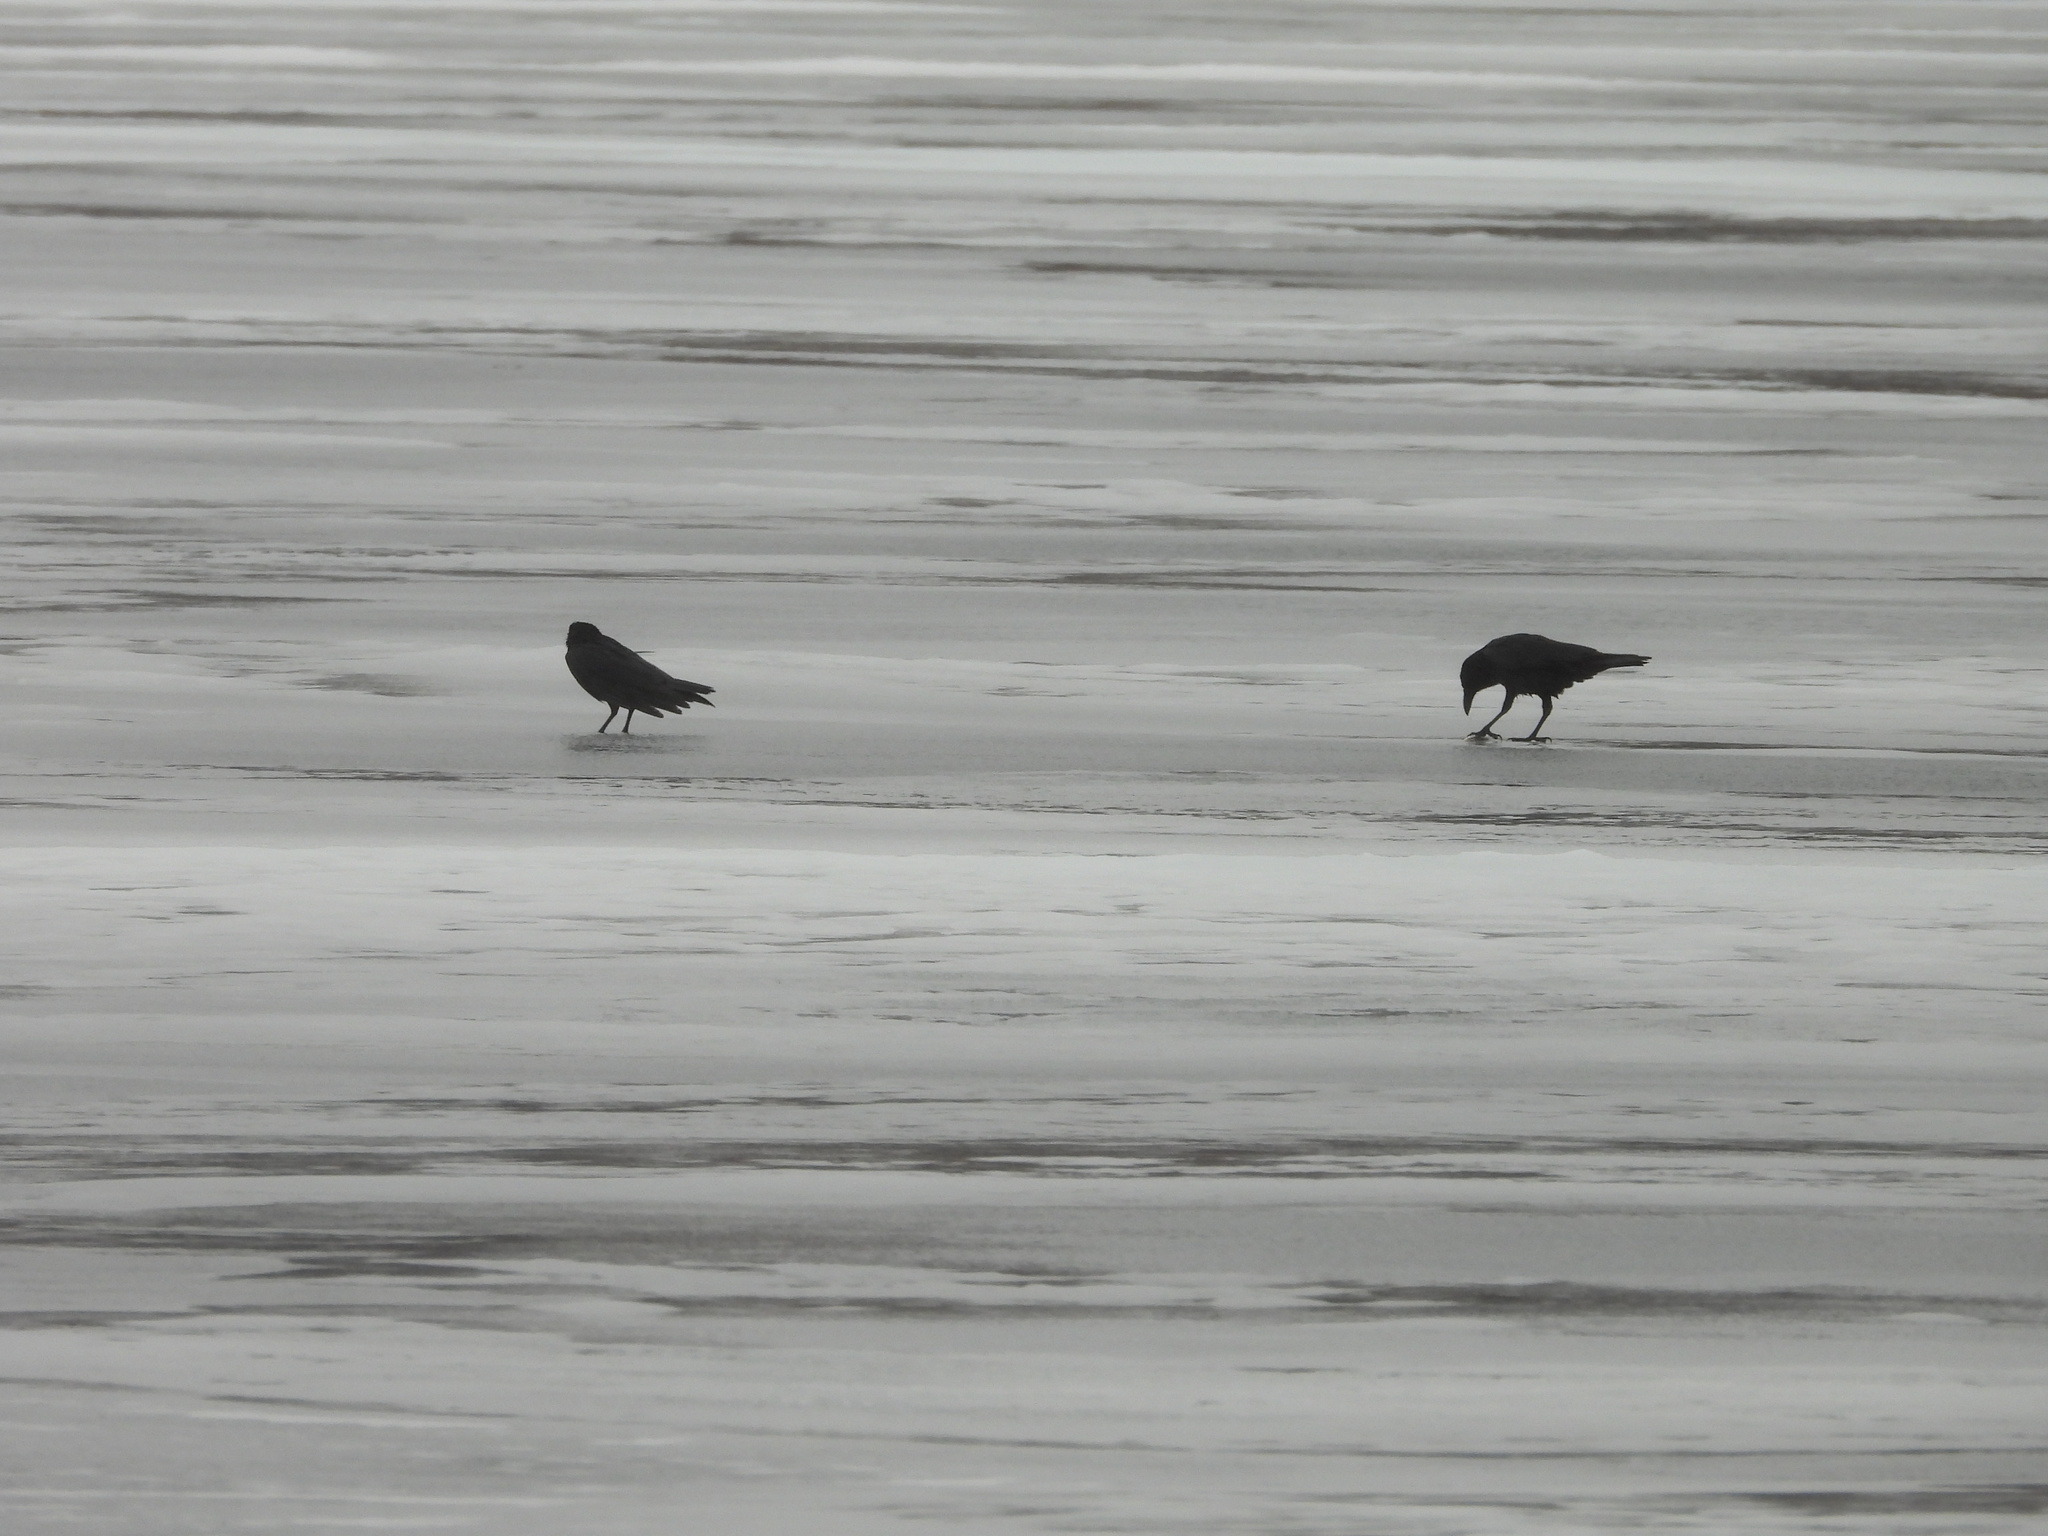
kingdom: Animalia
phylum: Chordata
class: Aves
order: Passeriformes
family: Corvidae
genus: Corvus
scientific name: Corvus brachyrhynchos
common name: American crow
